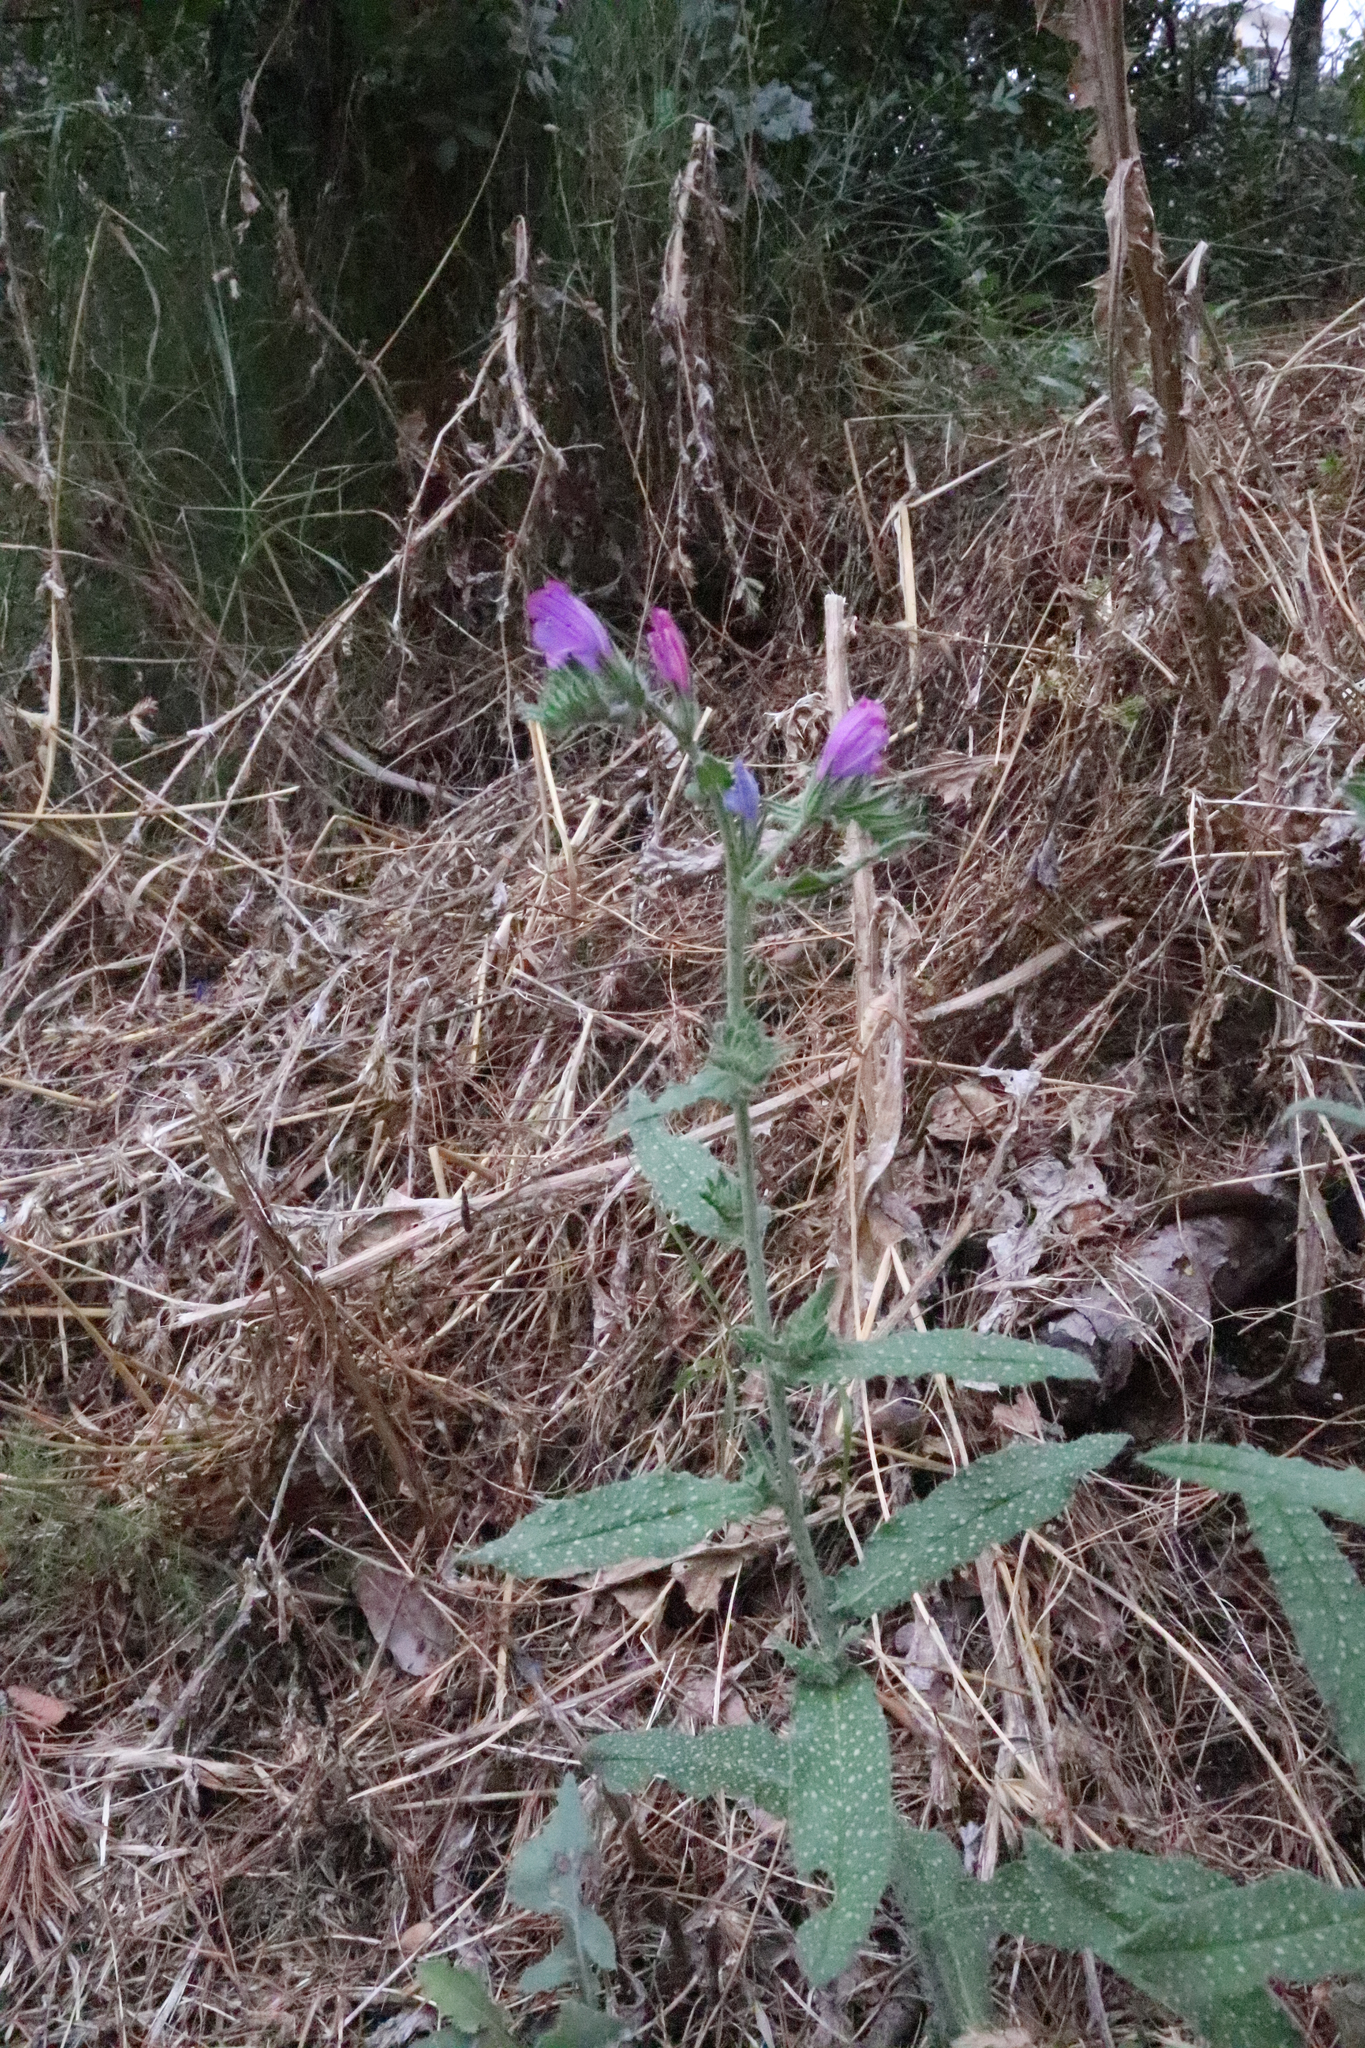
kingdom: Plantae
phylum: Tracheophyta
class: Magnoliopsida
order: Boraginales
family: Boraginaceae
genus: Echium
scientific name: Echium vulgare
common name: Common viper's bugloss
